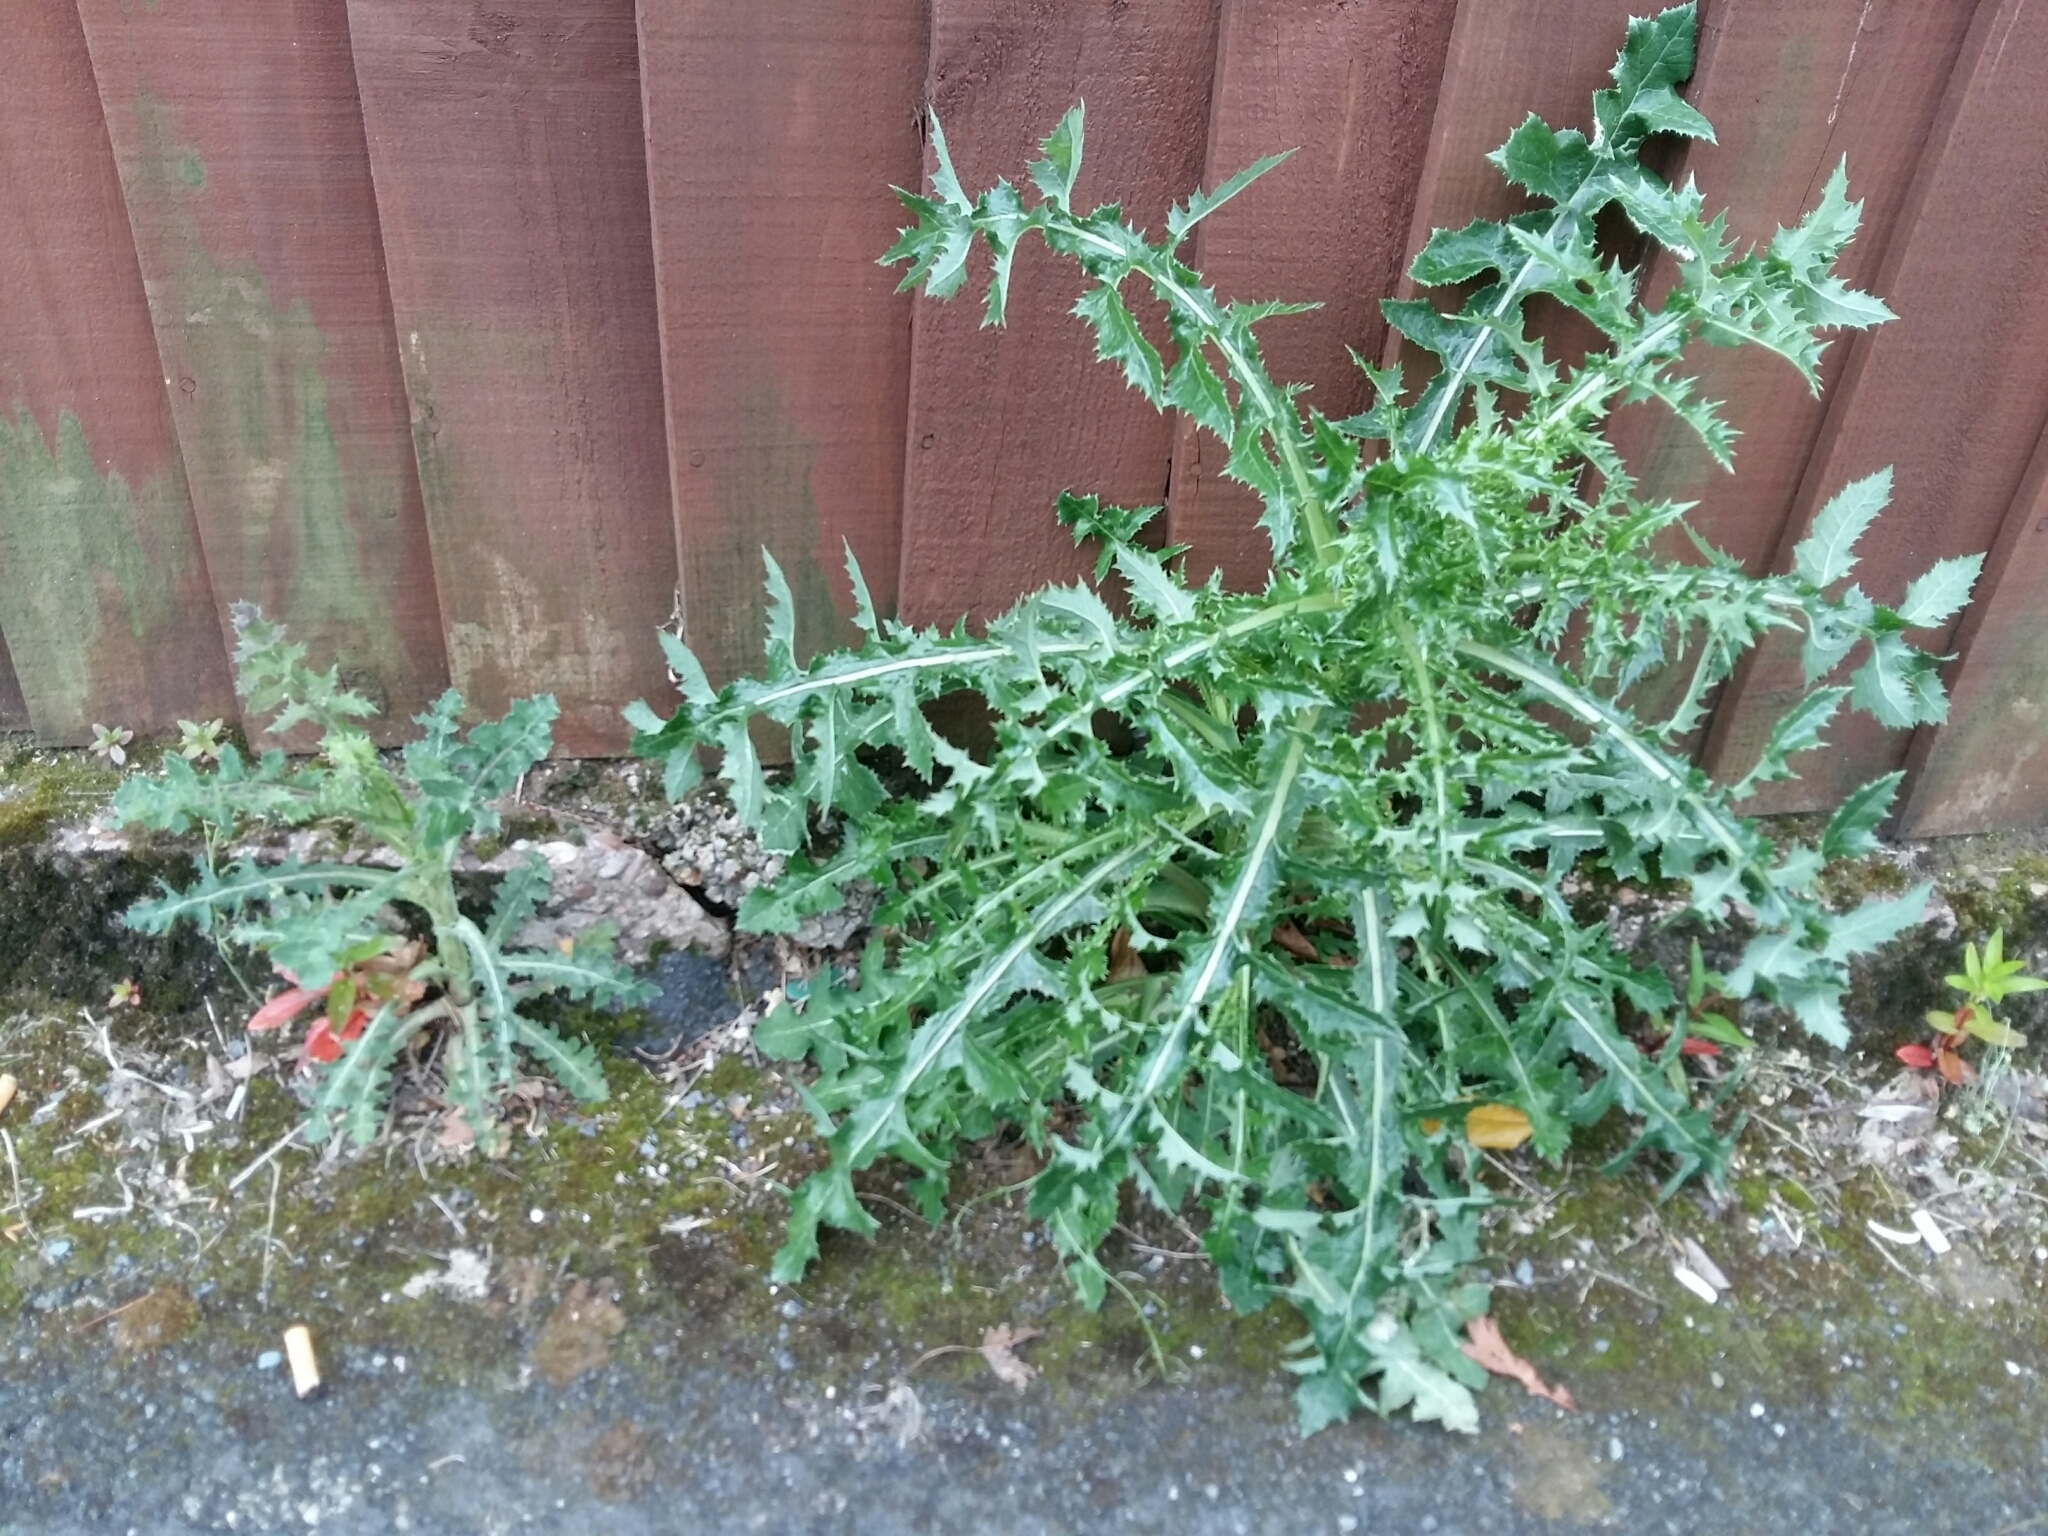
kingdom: Plantae
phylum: Tracheophyta
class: Magnoliopsida
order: Asterales
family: Asteraceae
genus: Sonchus
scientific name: Sonchus asper
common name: Prickly sow-thistle
